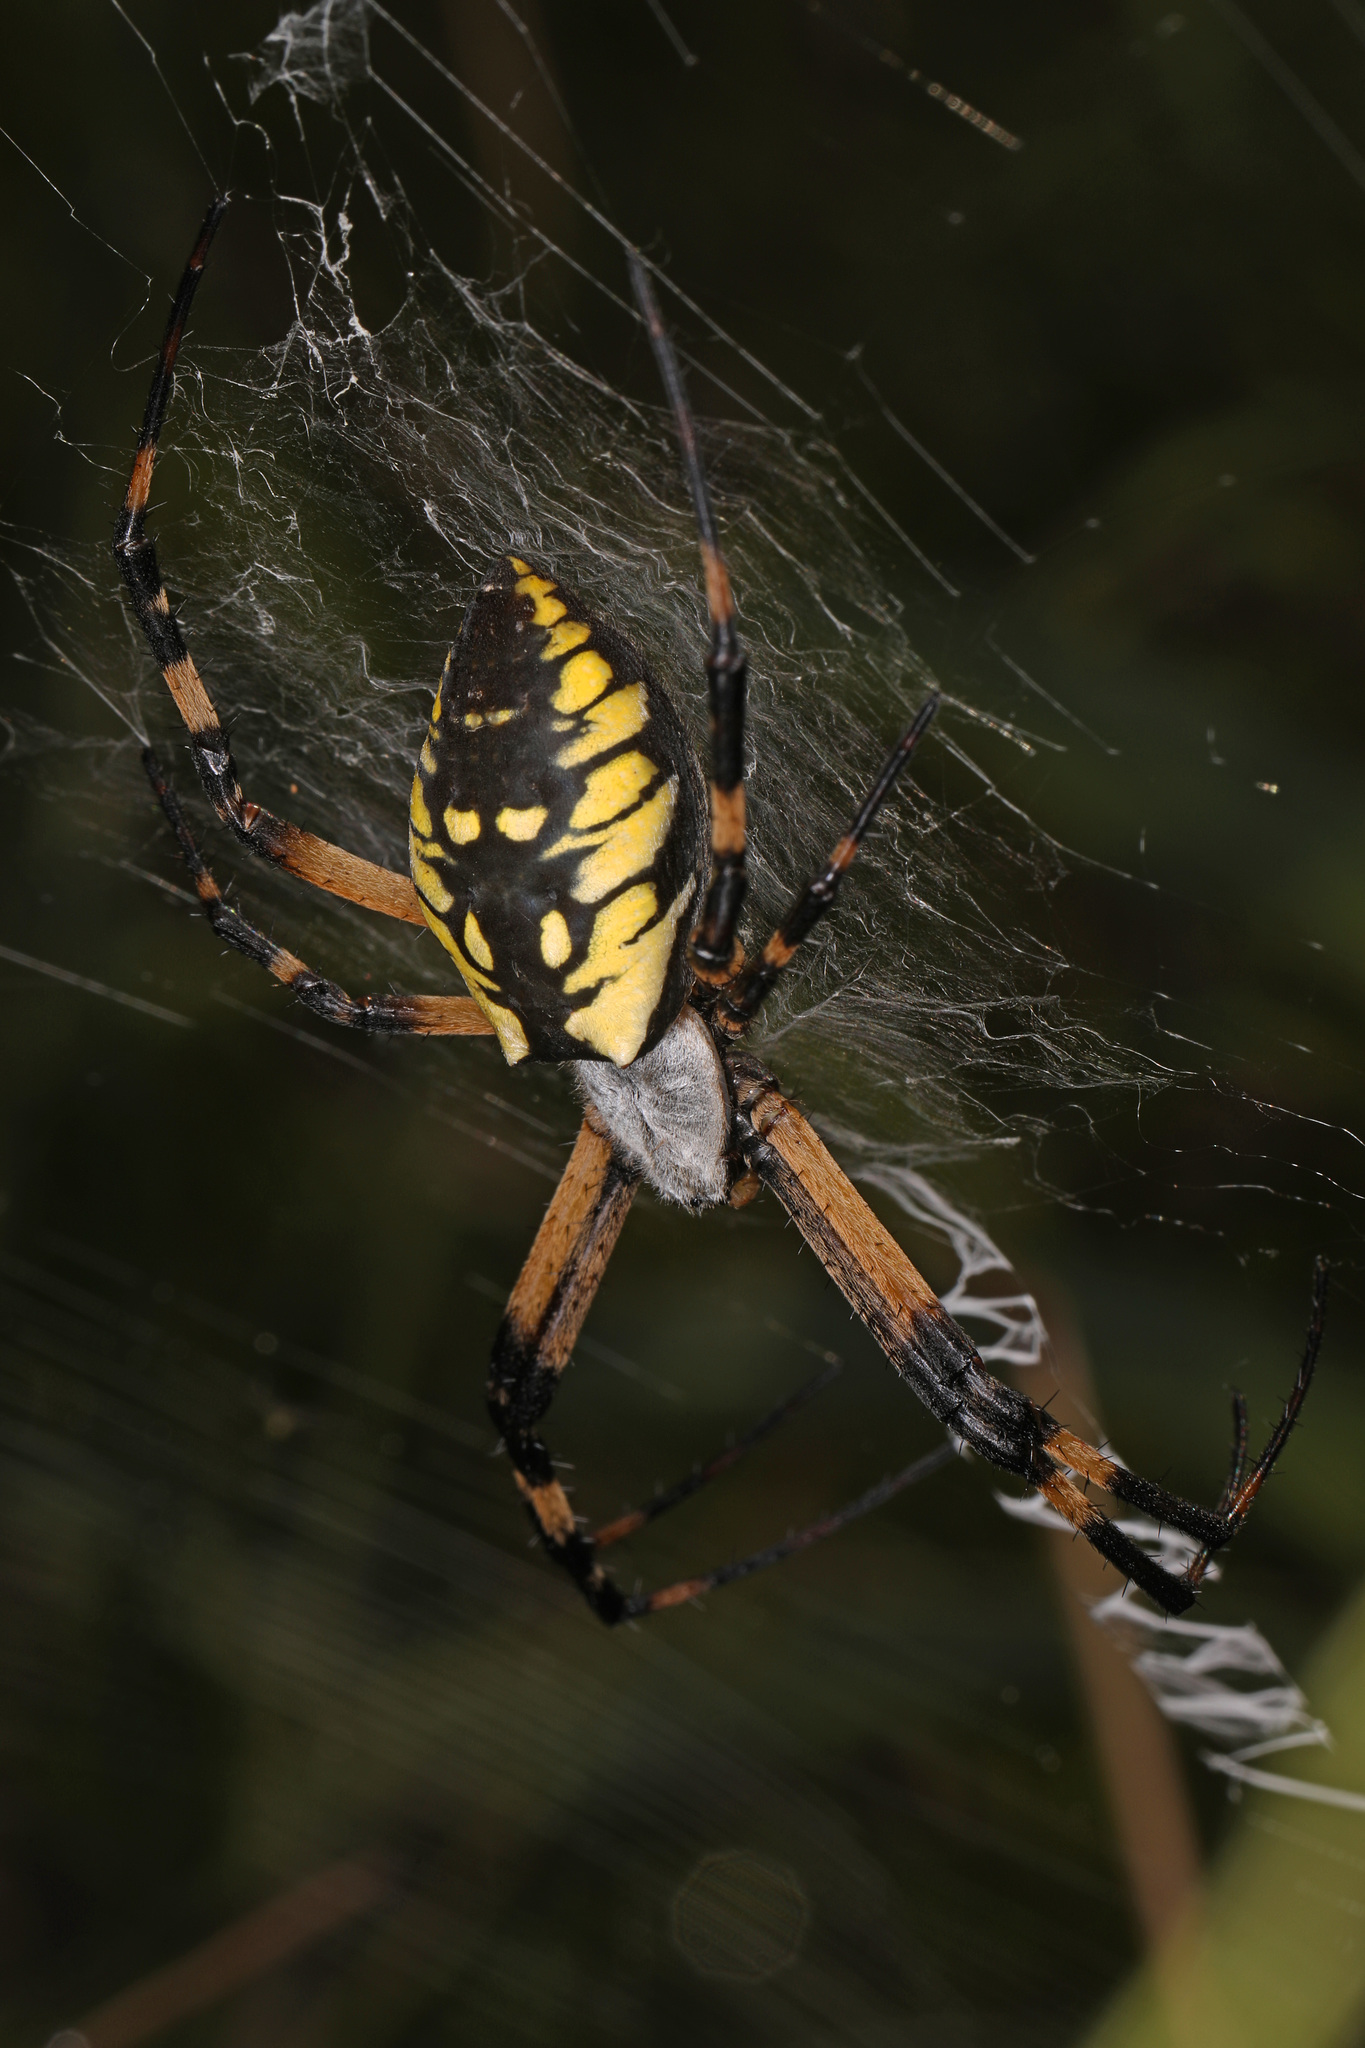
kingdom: Animalia
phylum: Arthropoda
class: Arachnida
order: Araneae
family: Araneidae
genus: Argiope
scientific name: Argiope aurantia
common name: Orb weavers
